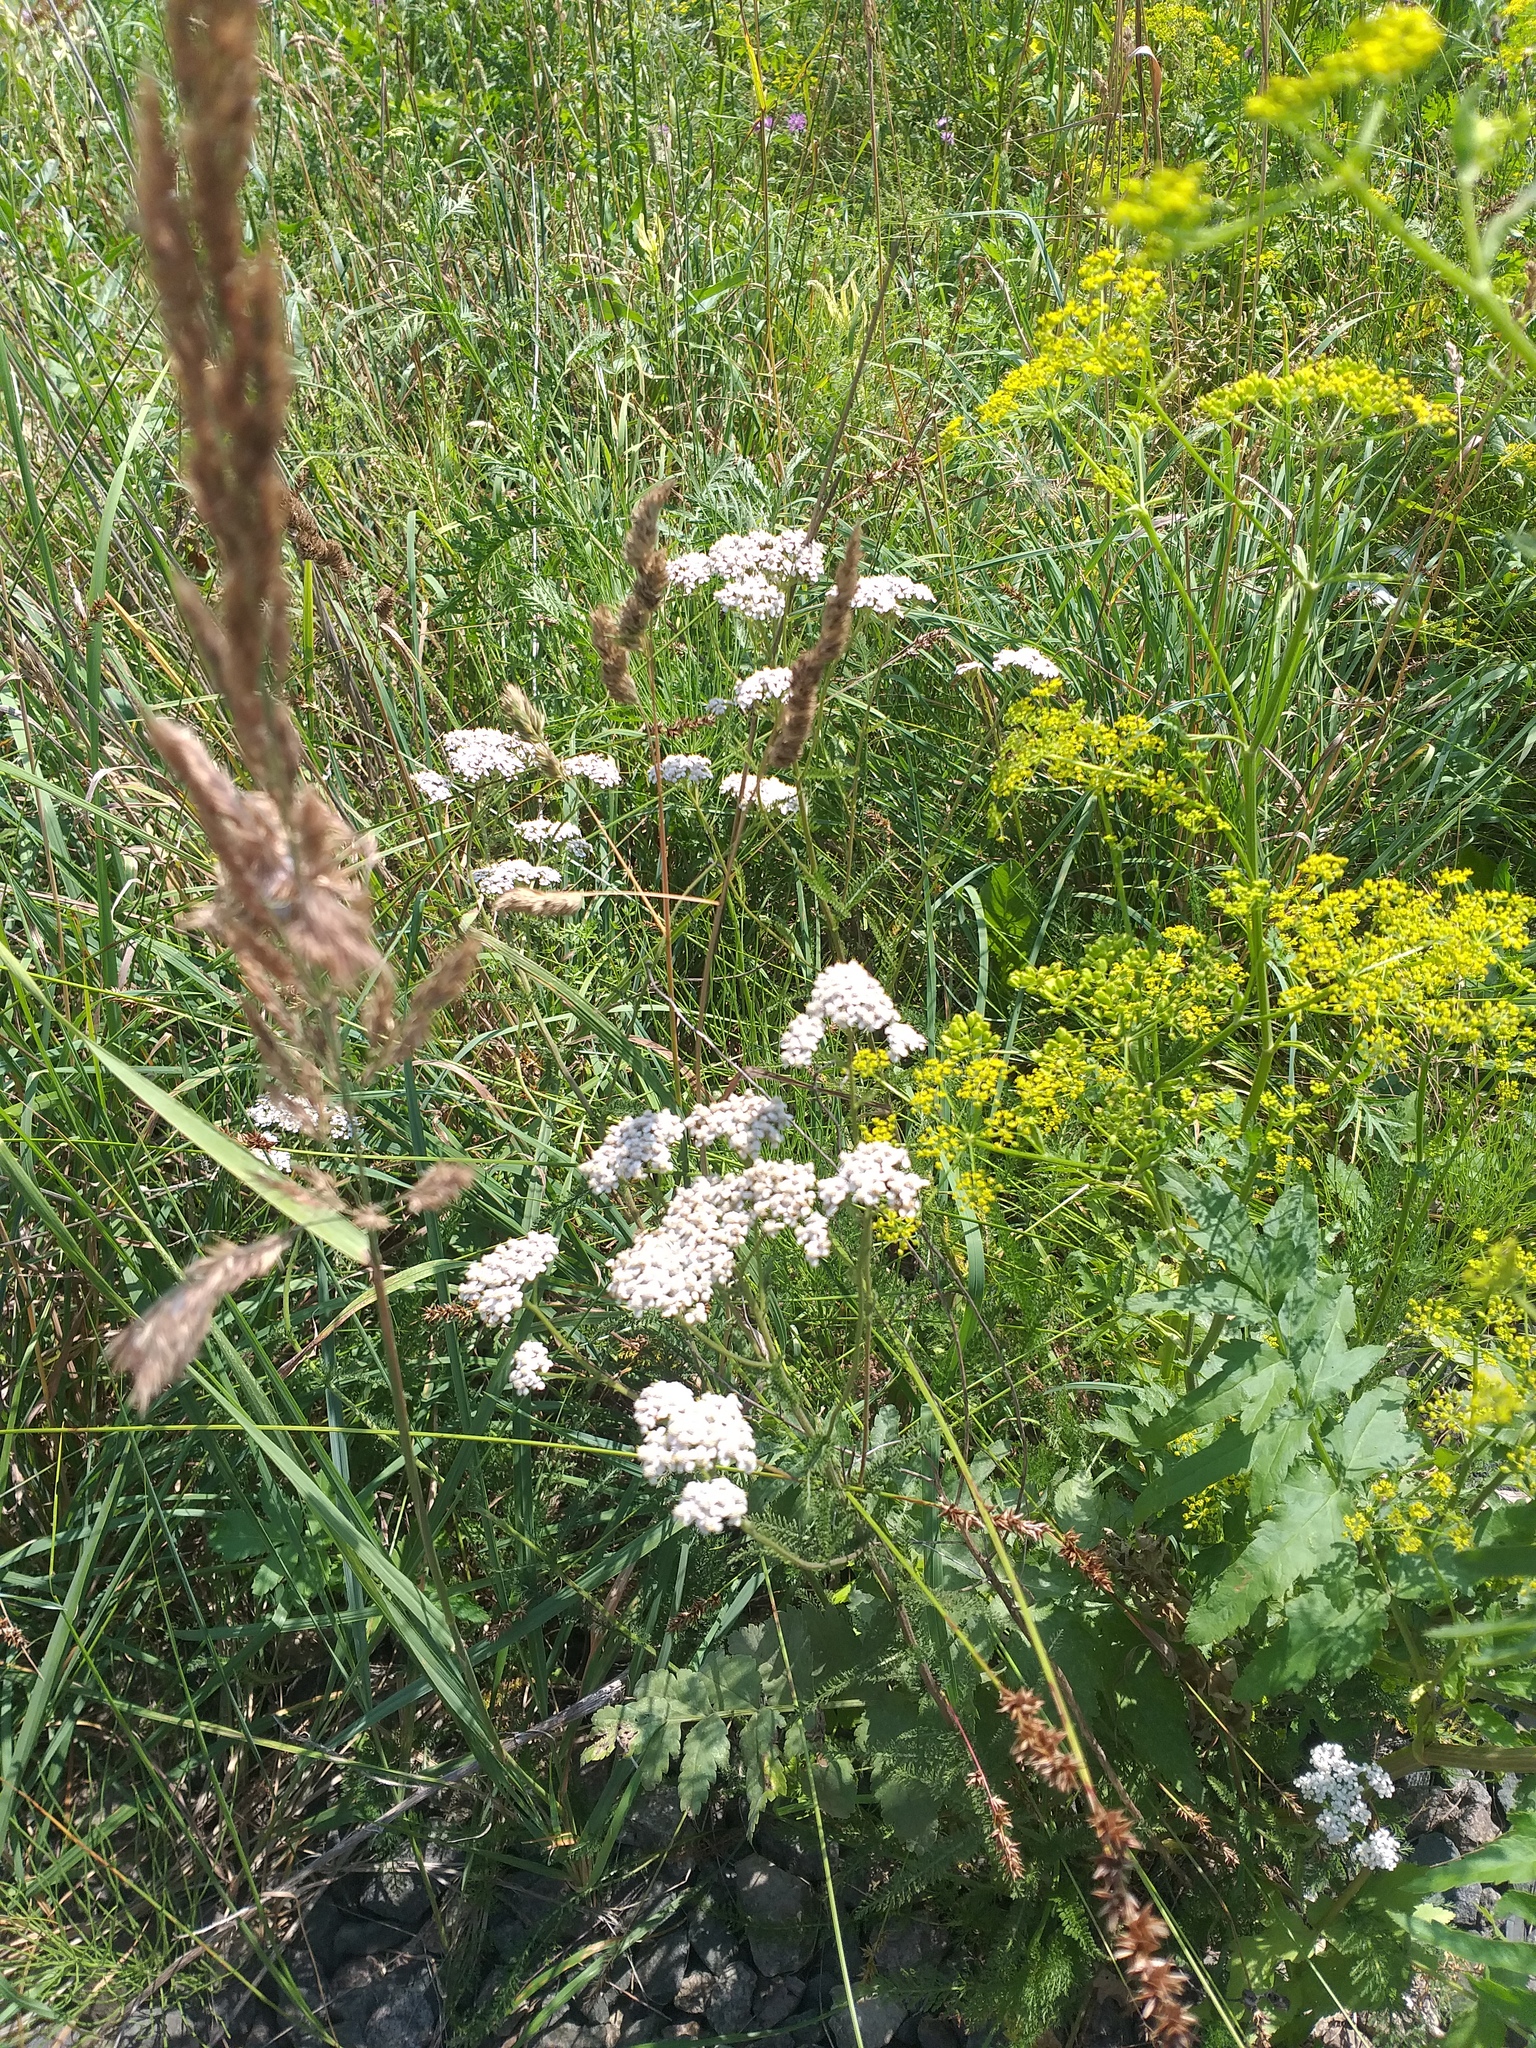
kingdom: Plantae
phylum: Tracheophyta
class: Magnoliopsida
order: Asterales
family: Asteraceae
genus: Achillea
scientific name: Achillea millefolium
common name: Yarrow
